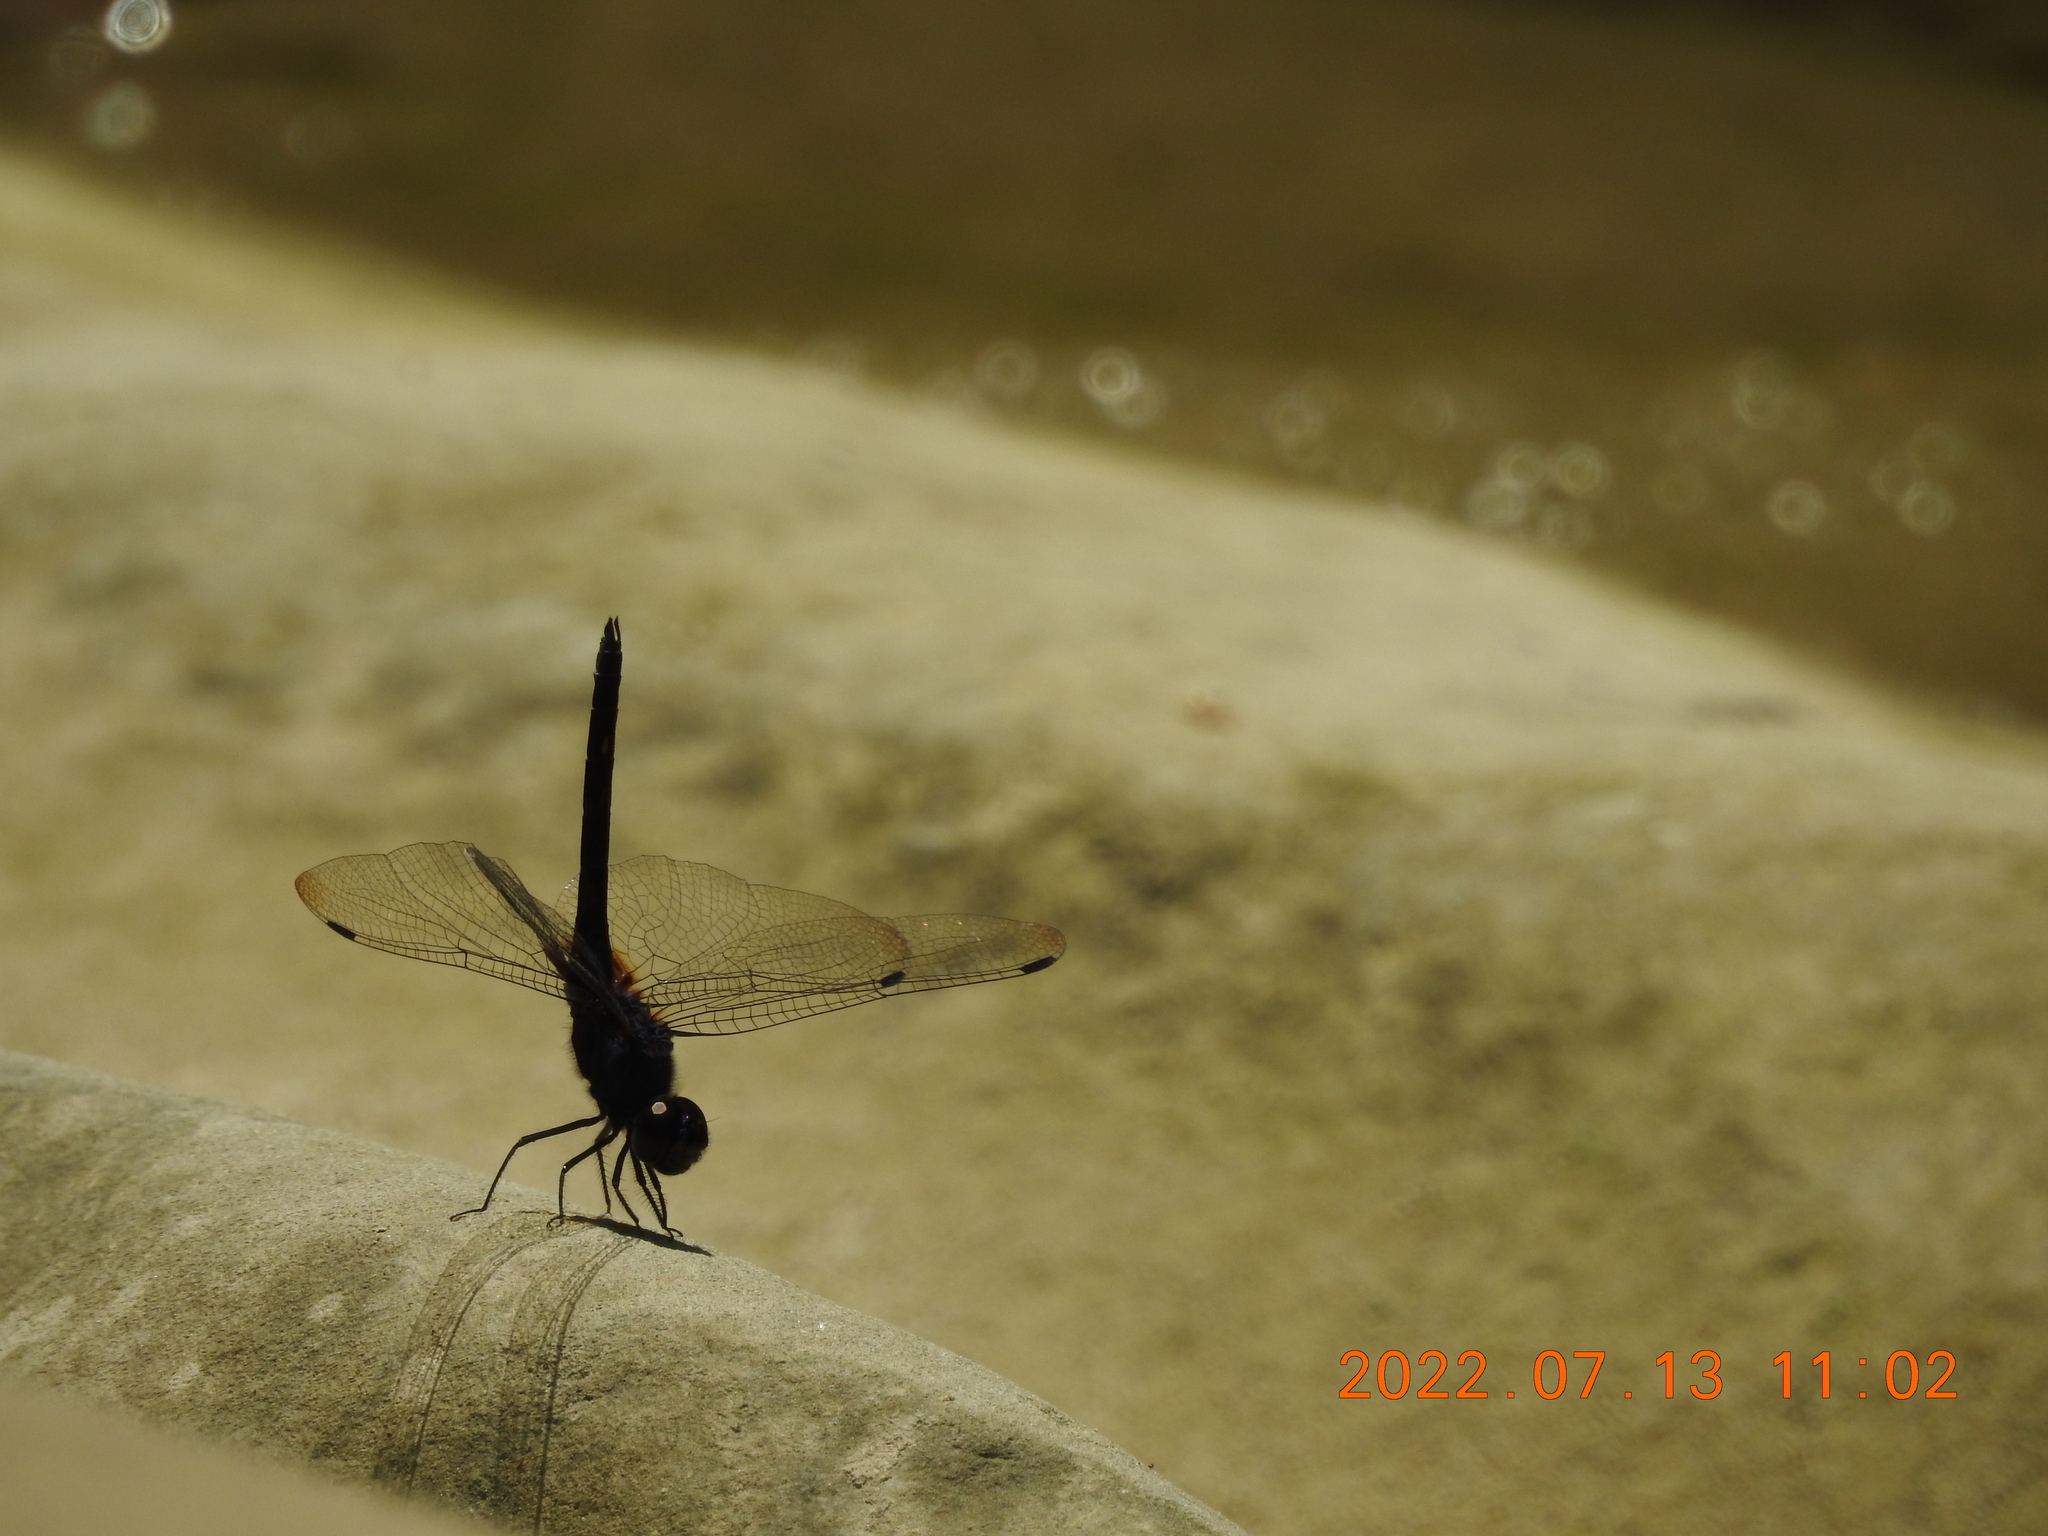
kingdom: Animalia
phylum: Arthropoda
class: Insecta
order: Odonata
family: Libellulidae
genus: Trithemis
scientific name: Trithemis festiva
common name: Indigo dropwing
